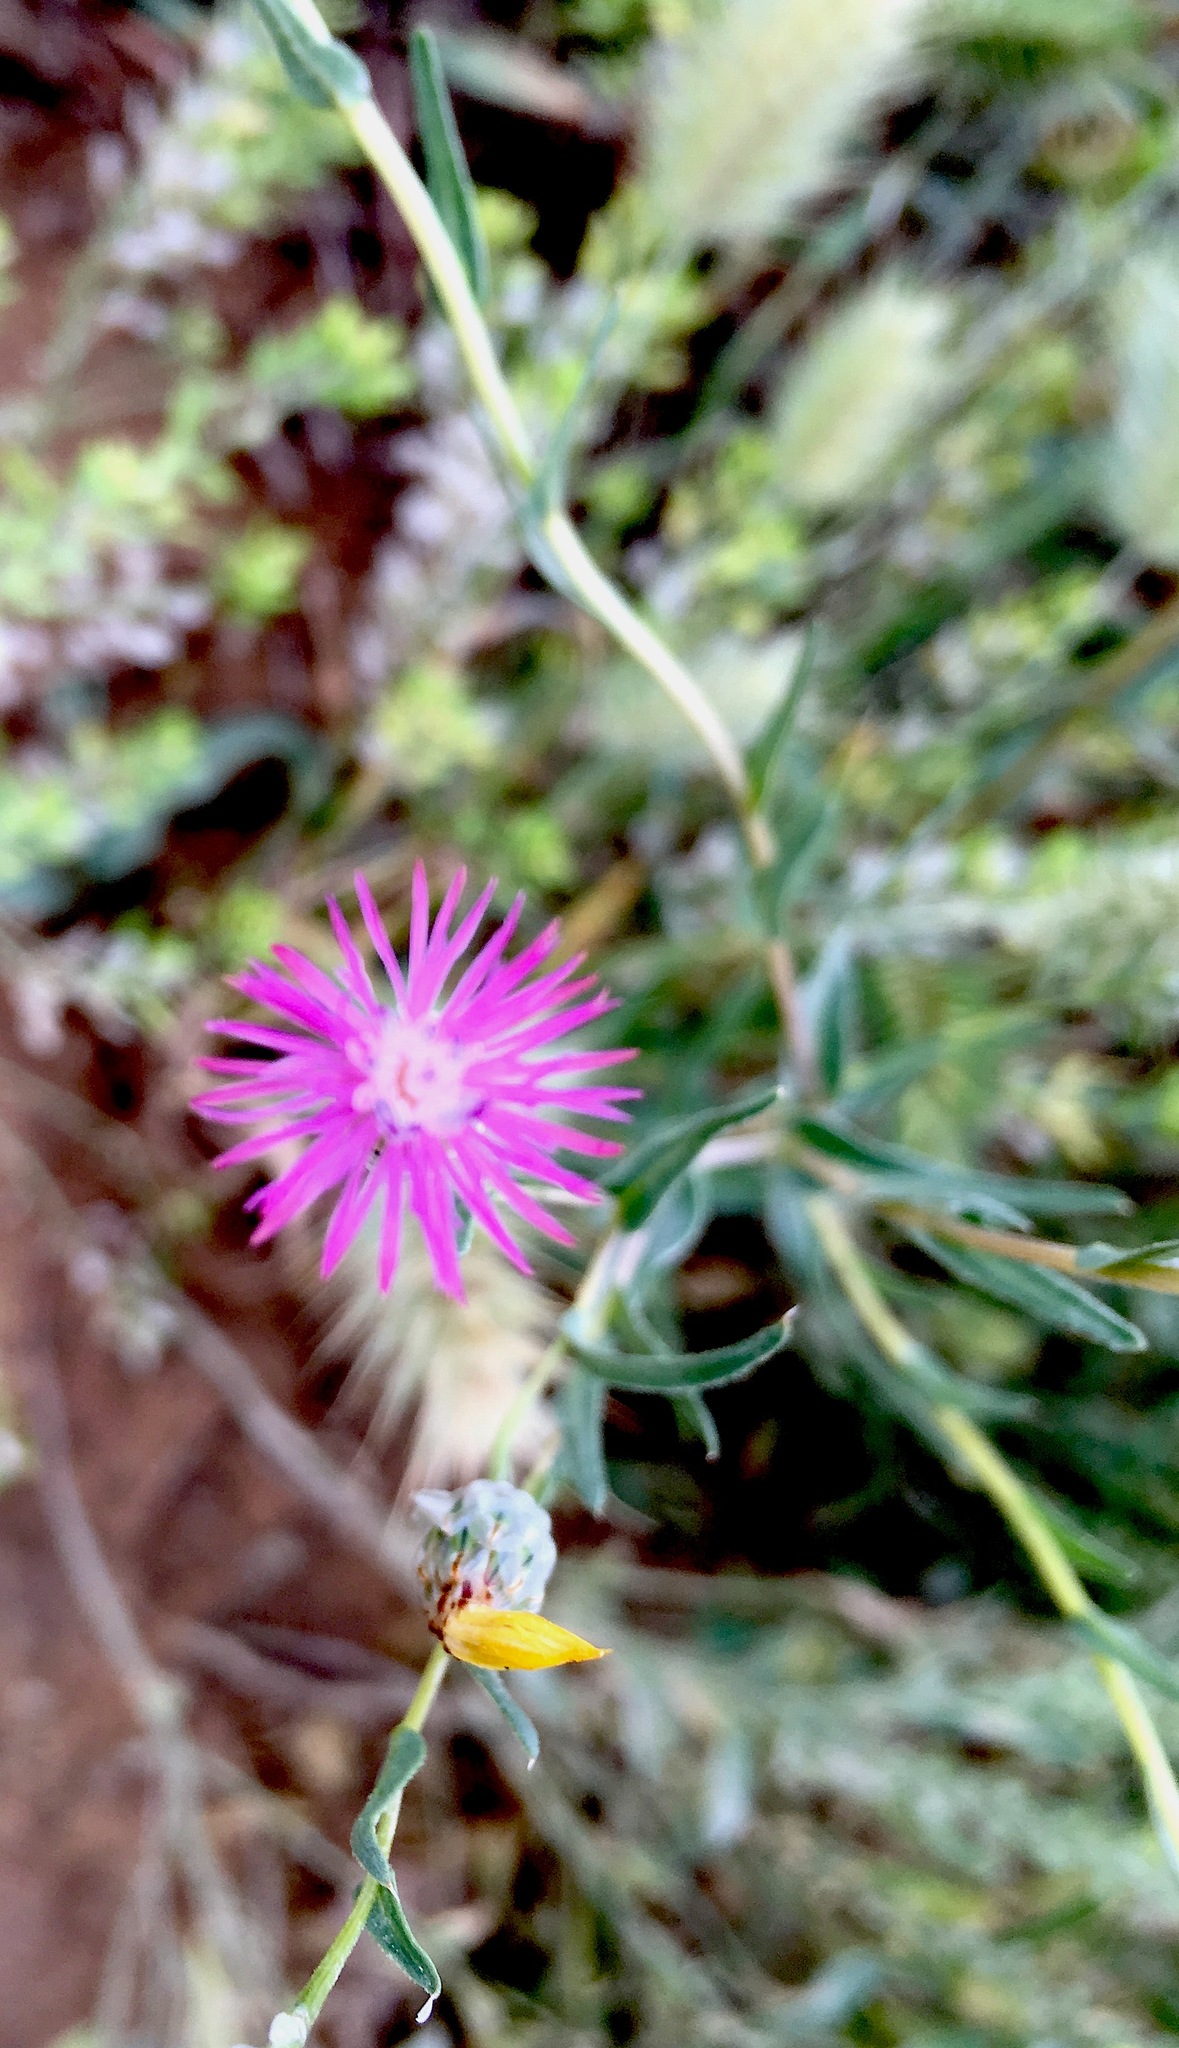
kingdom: Plantae
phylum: Tracheophyta
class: Magnoliopsida
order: Asterales
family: Asteraceae
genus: Centaurea
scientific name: Centaurea pulchella
